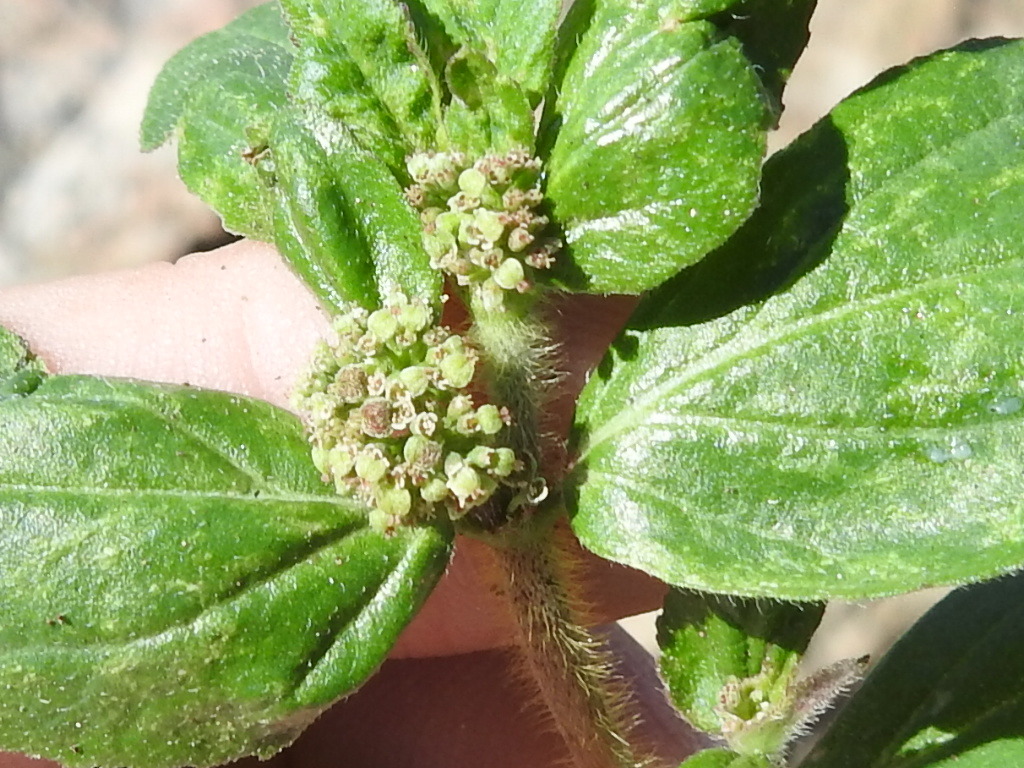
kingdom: Plantae
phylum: Tracheophyta
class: Magnoliopsida
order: Malpighiales
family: Euphorbiaceae
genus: Euphorbia
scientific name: Euphorbia hirta
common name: Pillpod sandmat
